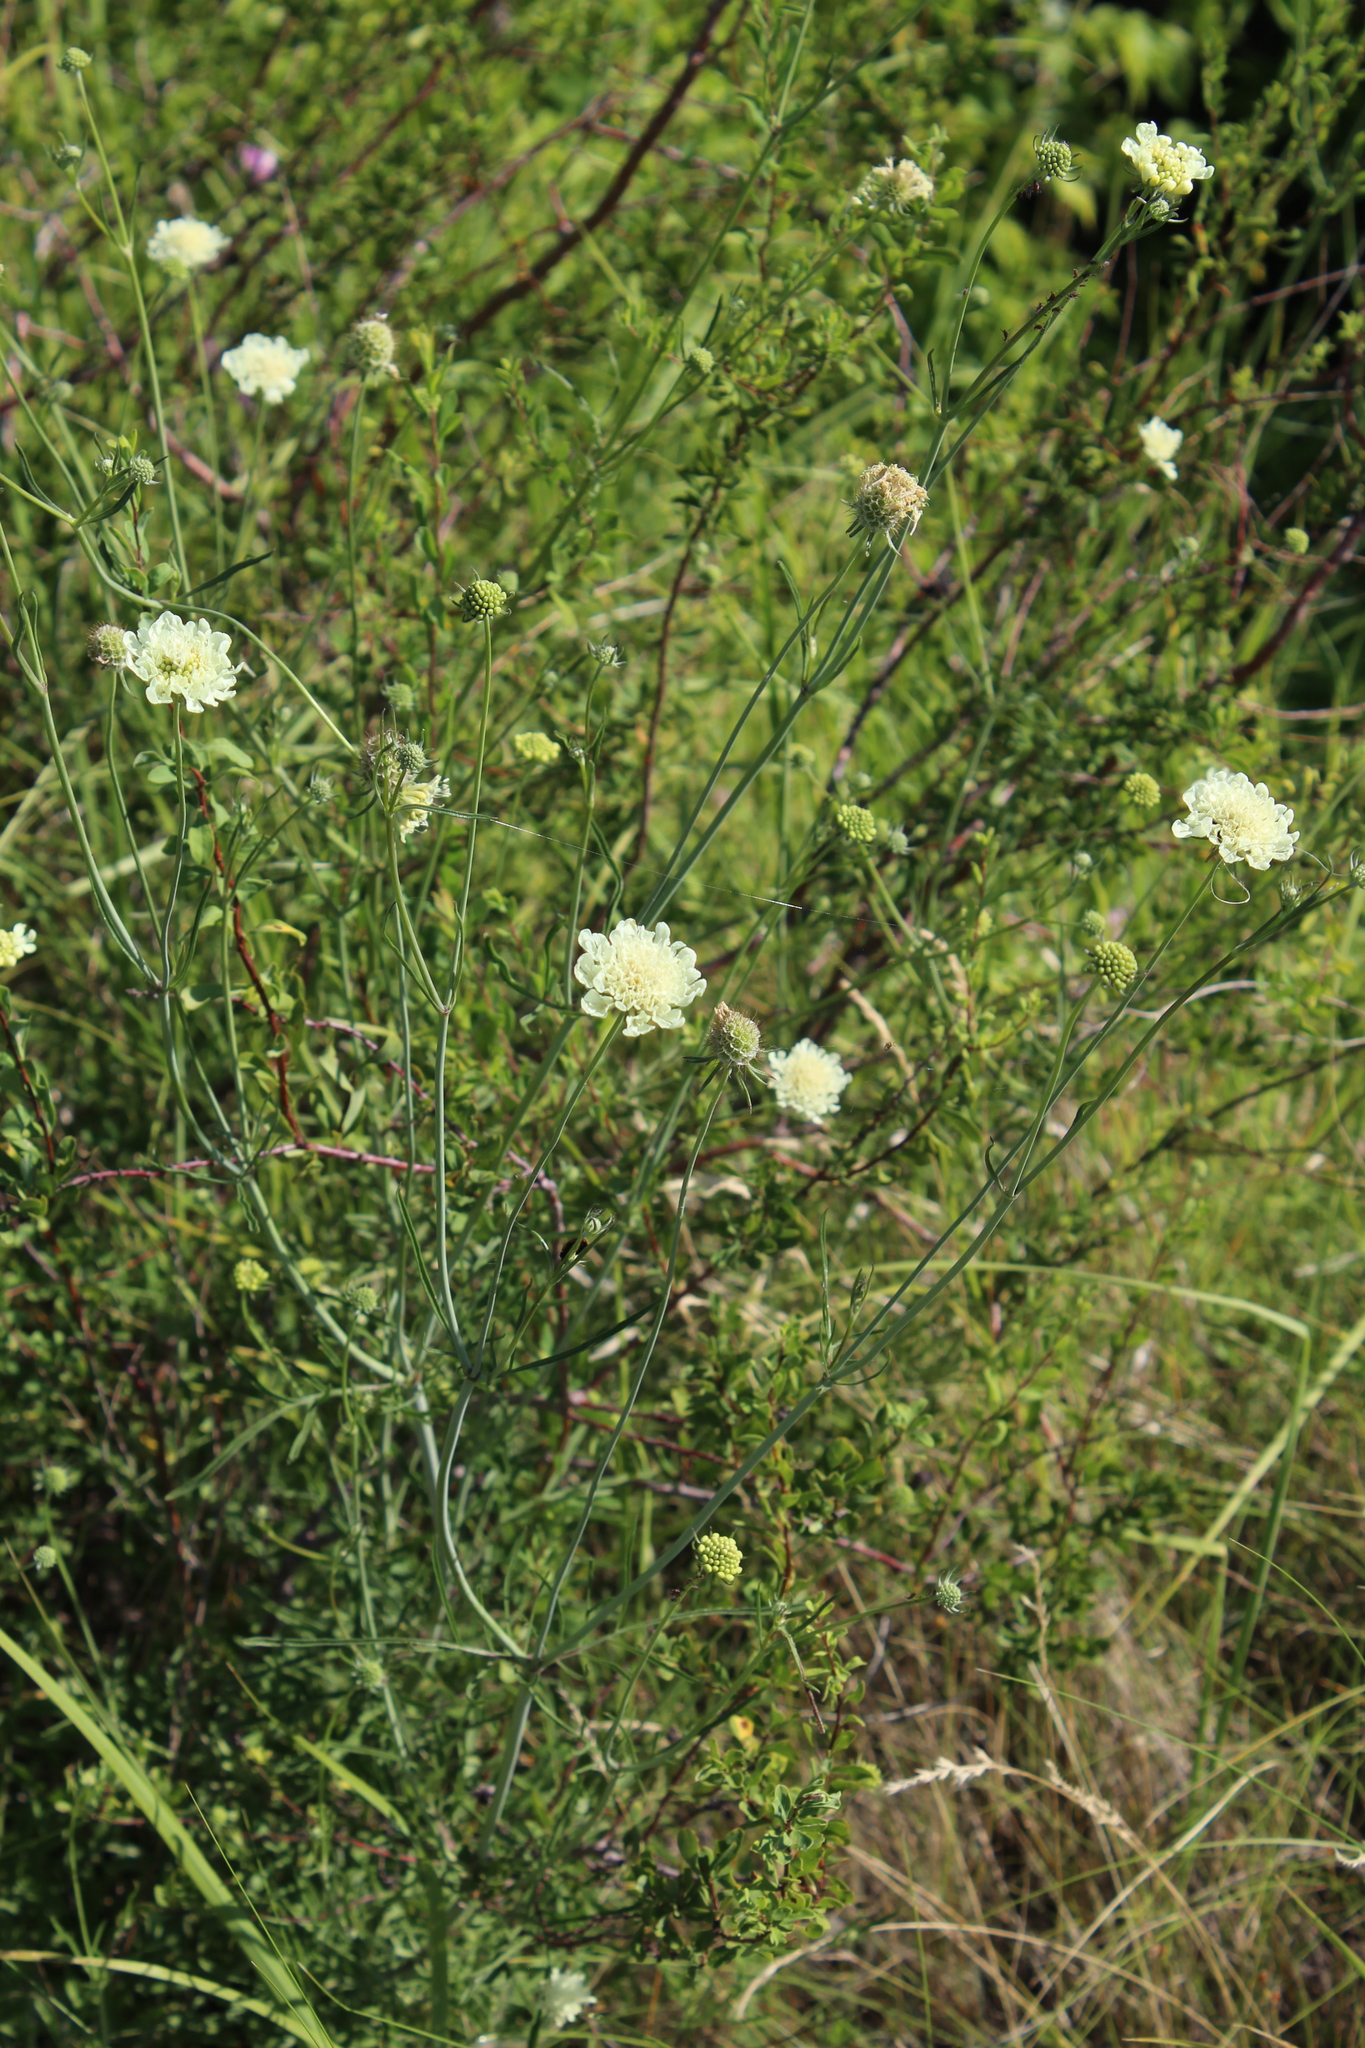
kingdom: Plantae
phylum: Tracheophyta
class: Magnoliopsida
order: Dipsacales
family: Caprifoliaceae
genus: Scabiosa
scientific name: Scabiosa ochroleuca
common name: Cream pincushions
